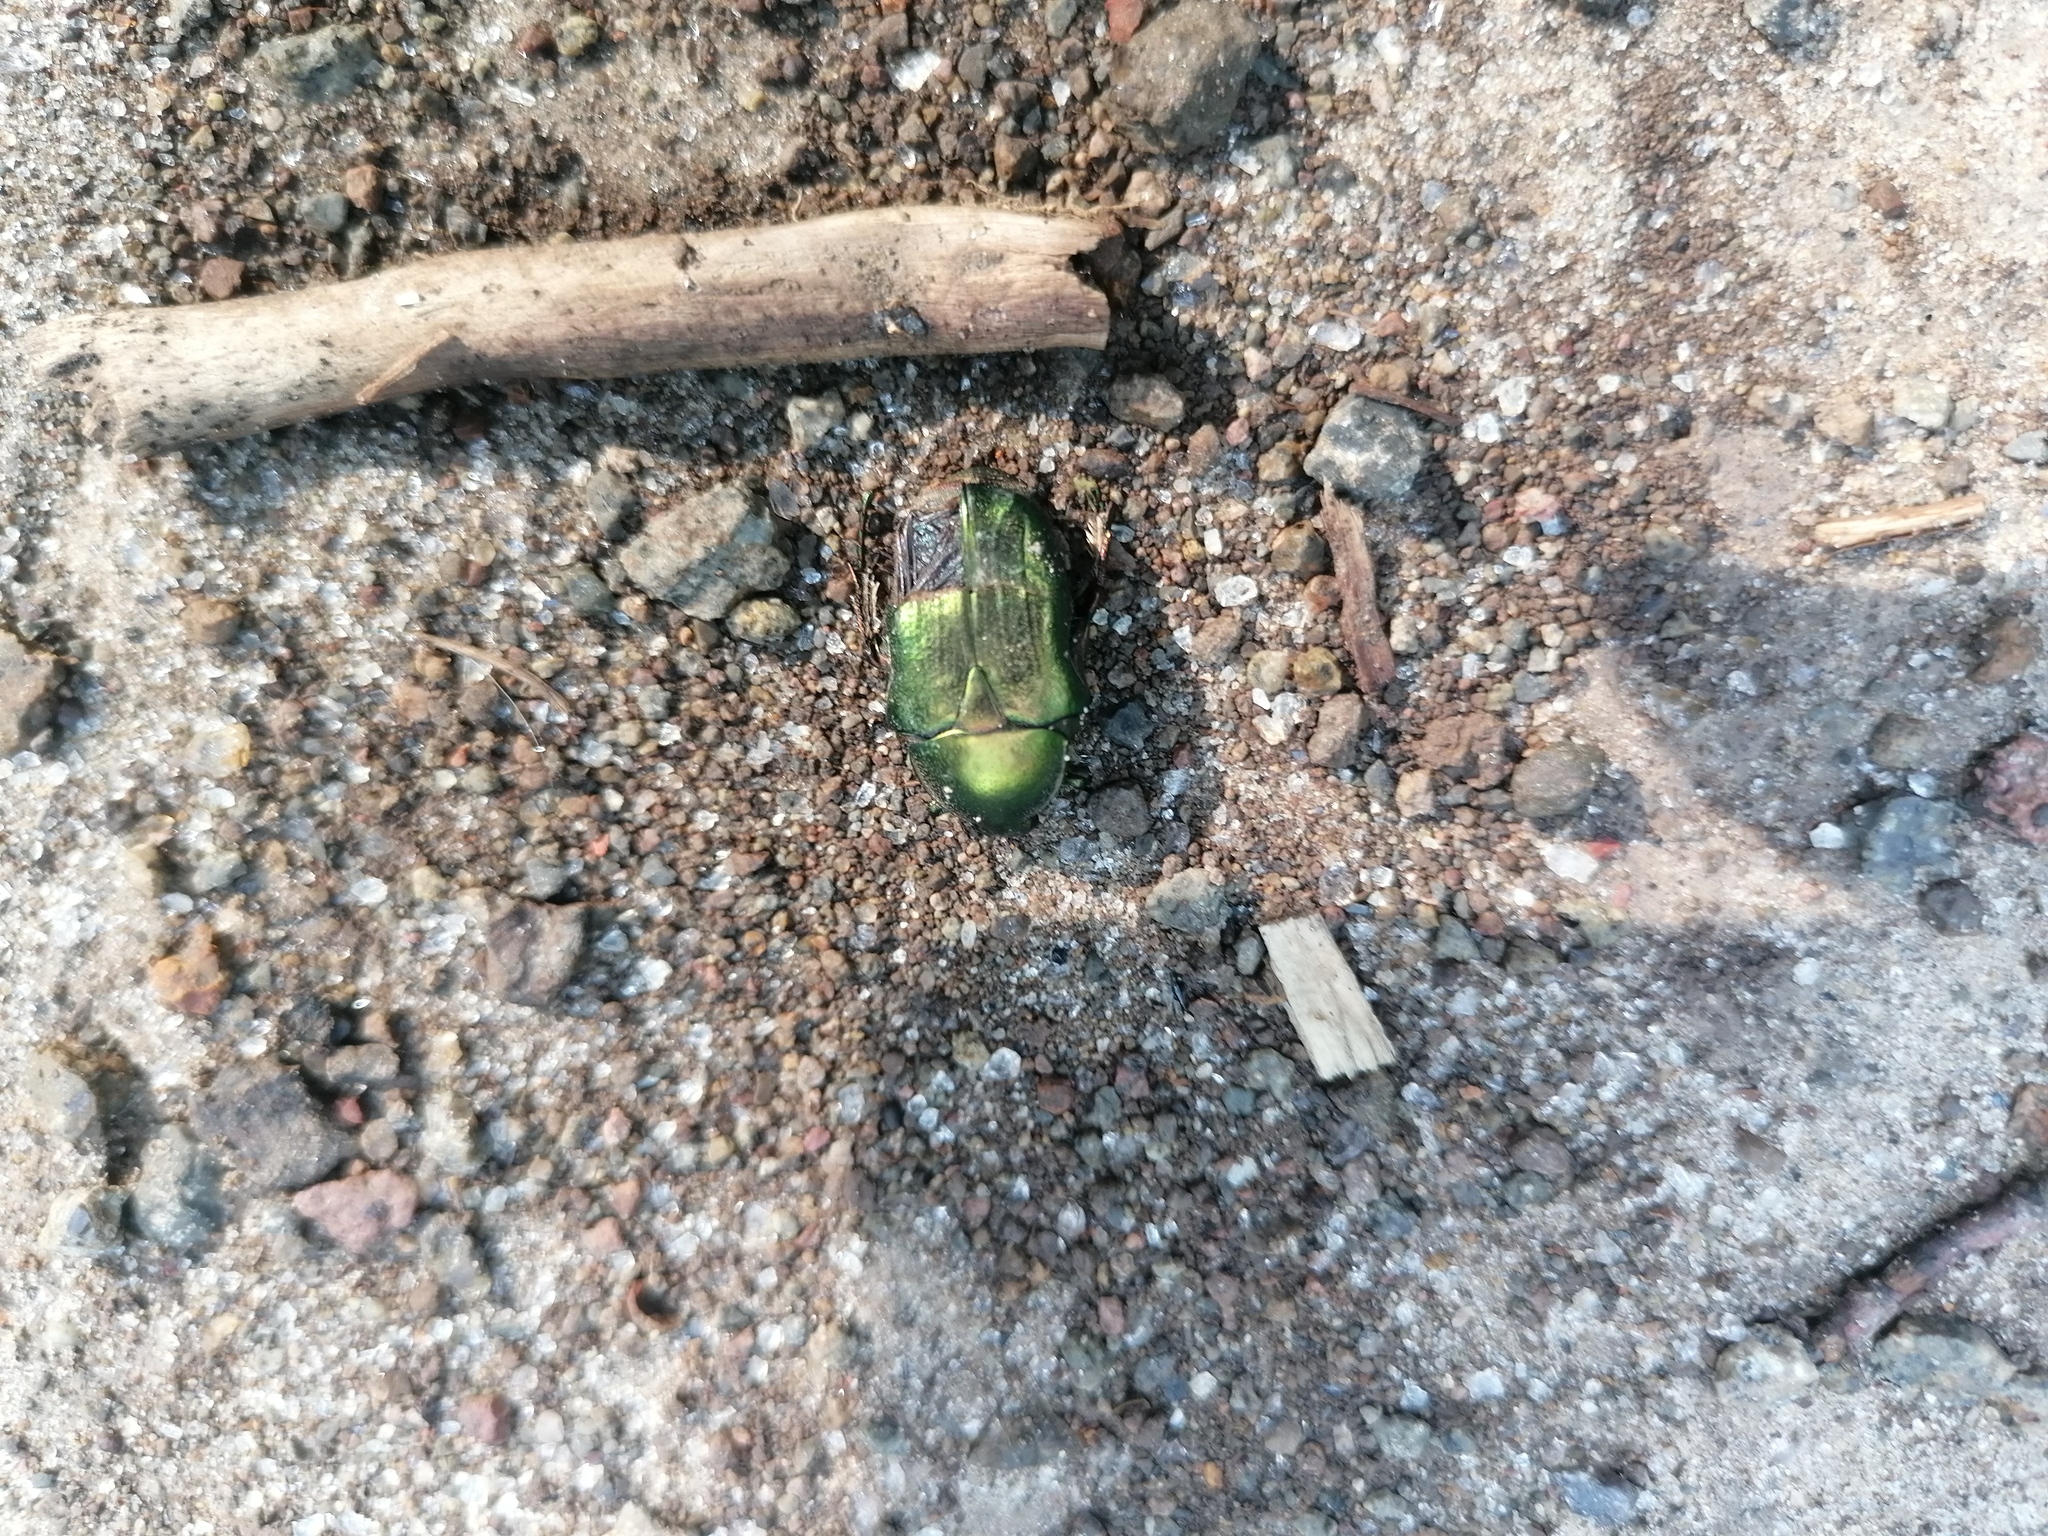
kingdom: Animalia
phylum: Arthropoda
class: Insecta
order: Coleoptera
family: Scarabaeidae
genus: Cetonia
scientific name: Cetonia aurata
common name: Rose chafer
